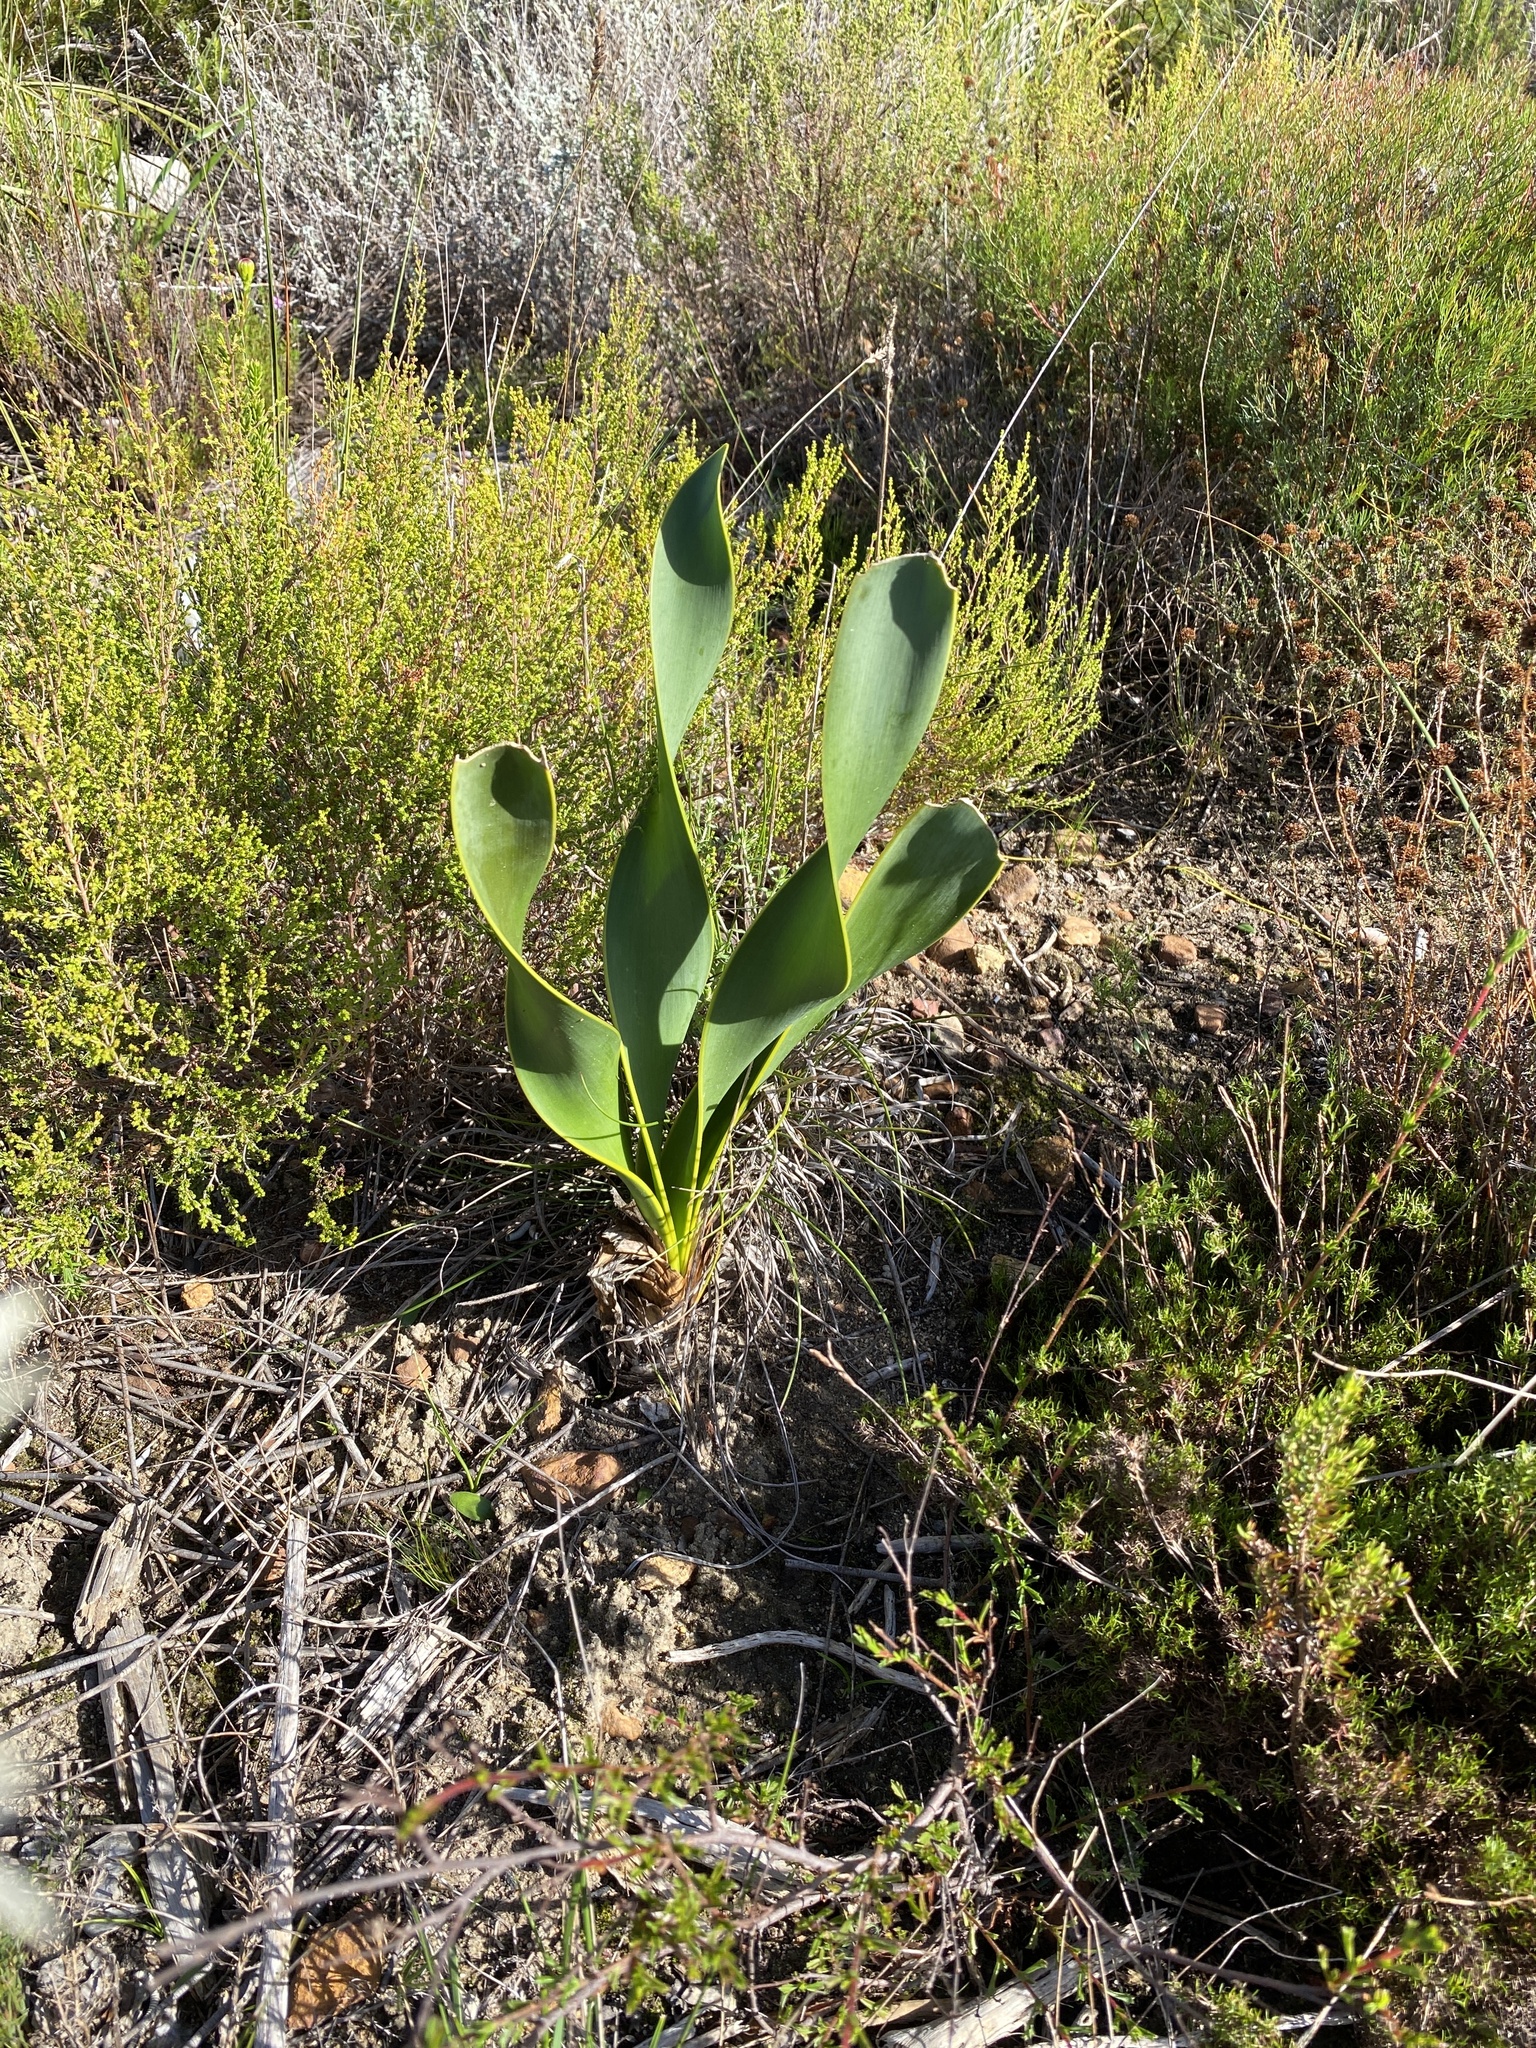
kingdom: Plantae
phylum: Tracheophyta
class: Liliopsida
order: Asparagales
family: Amaryllidaceae
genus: Cyrtanthus
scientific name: Cyrtanthus carneus
